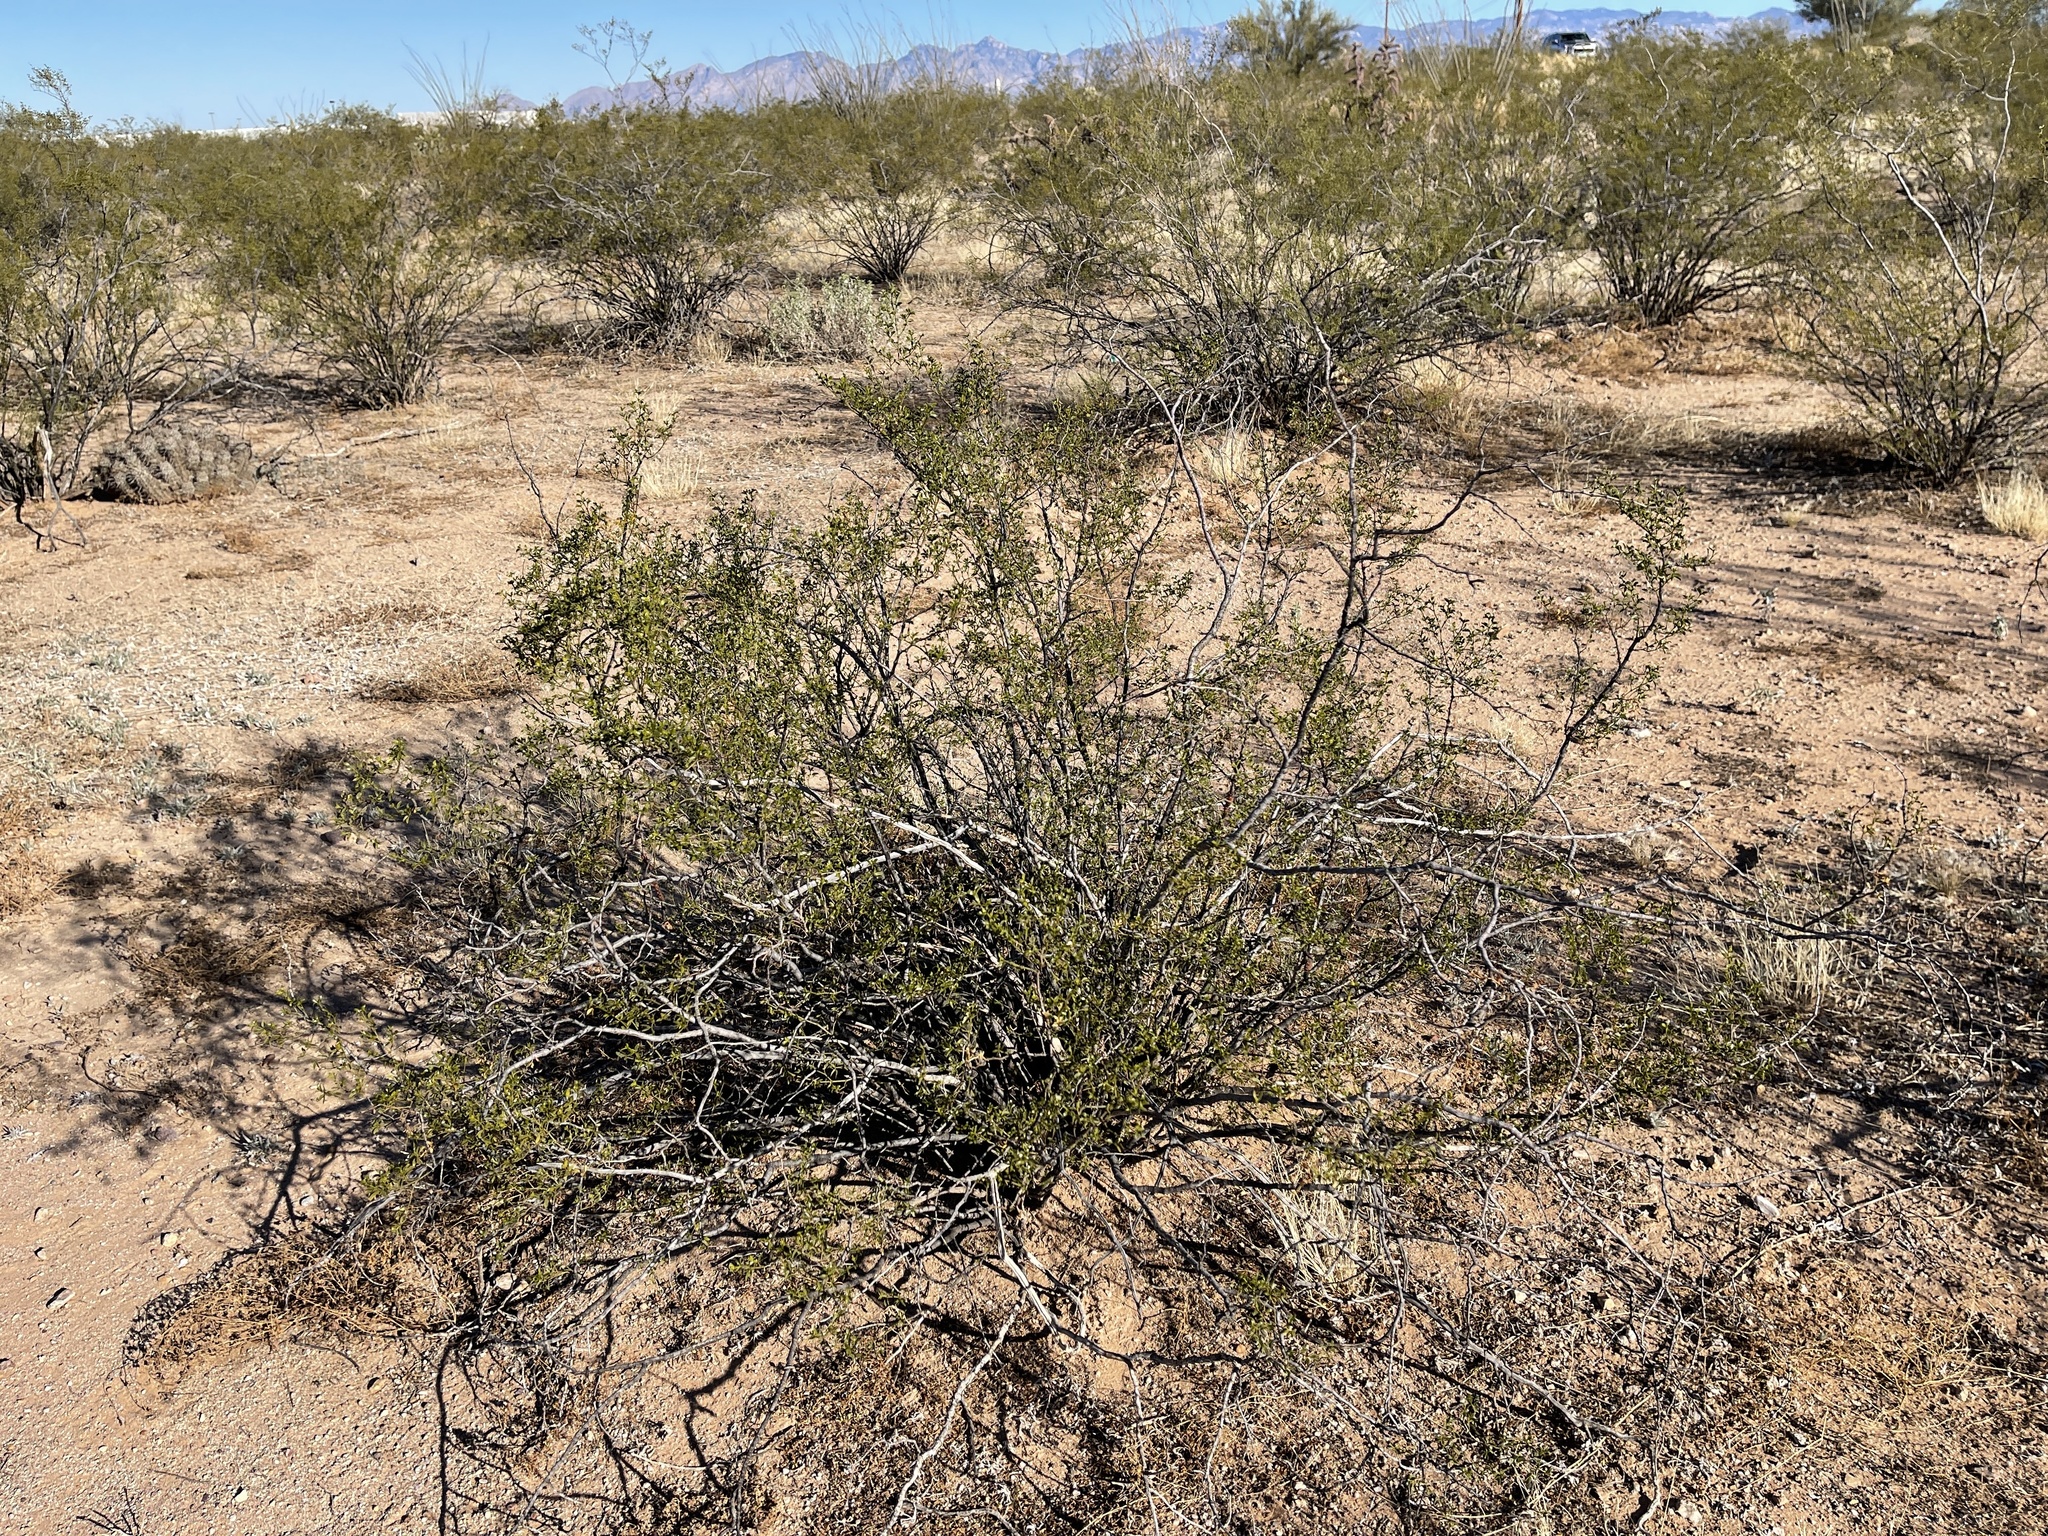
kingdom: Plantae
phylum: Tracheophyta
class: Magnoliopsida
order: Zygophyllales
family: Zygophyllaceae
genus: Larrea
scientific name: Larrea tridentata
